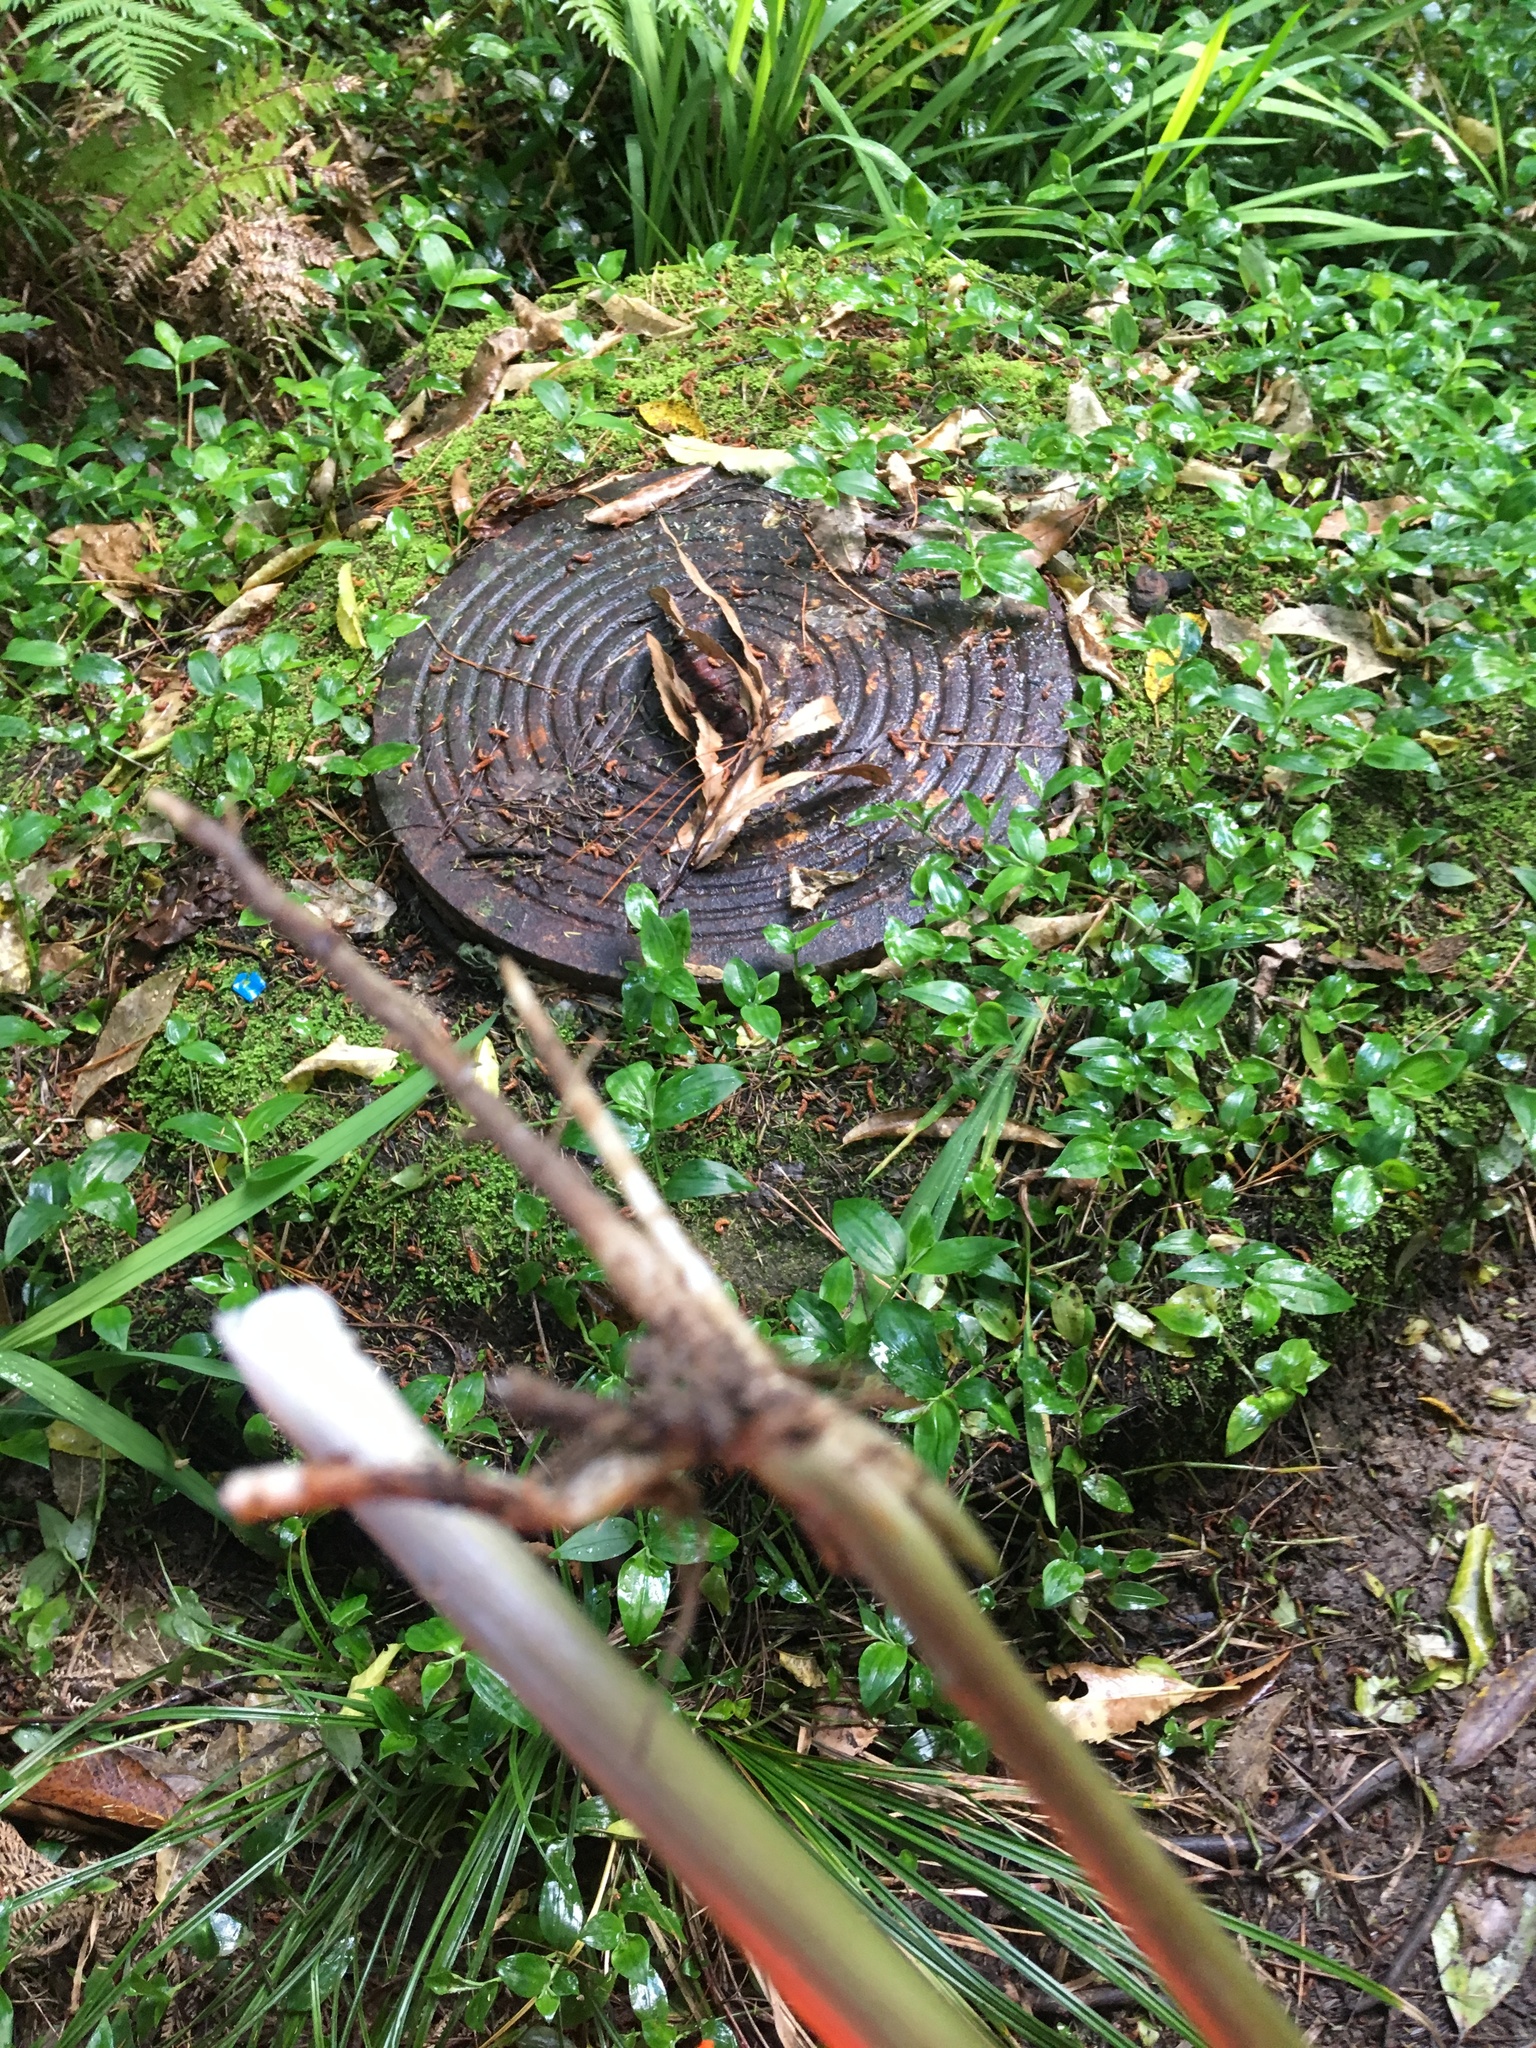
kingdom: Plantae
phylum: Tracheophyta
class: Liliopsida
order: Commelinales
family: Commelinaceae
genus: Tradescantia
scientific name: Tradescantia fluminensis
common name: Wandering-jew
